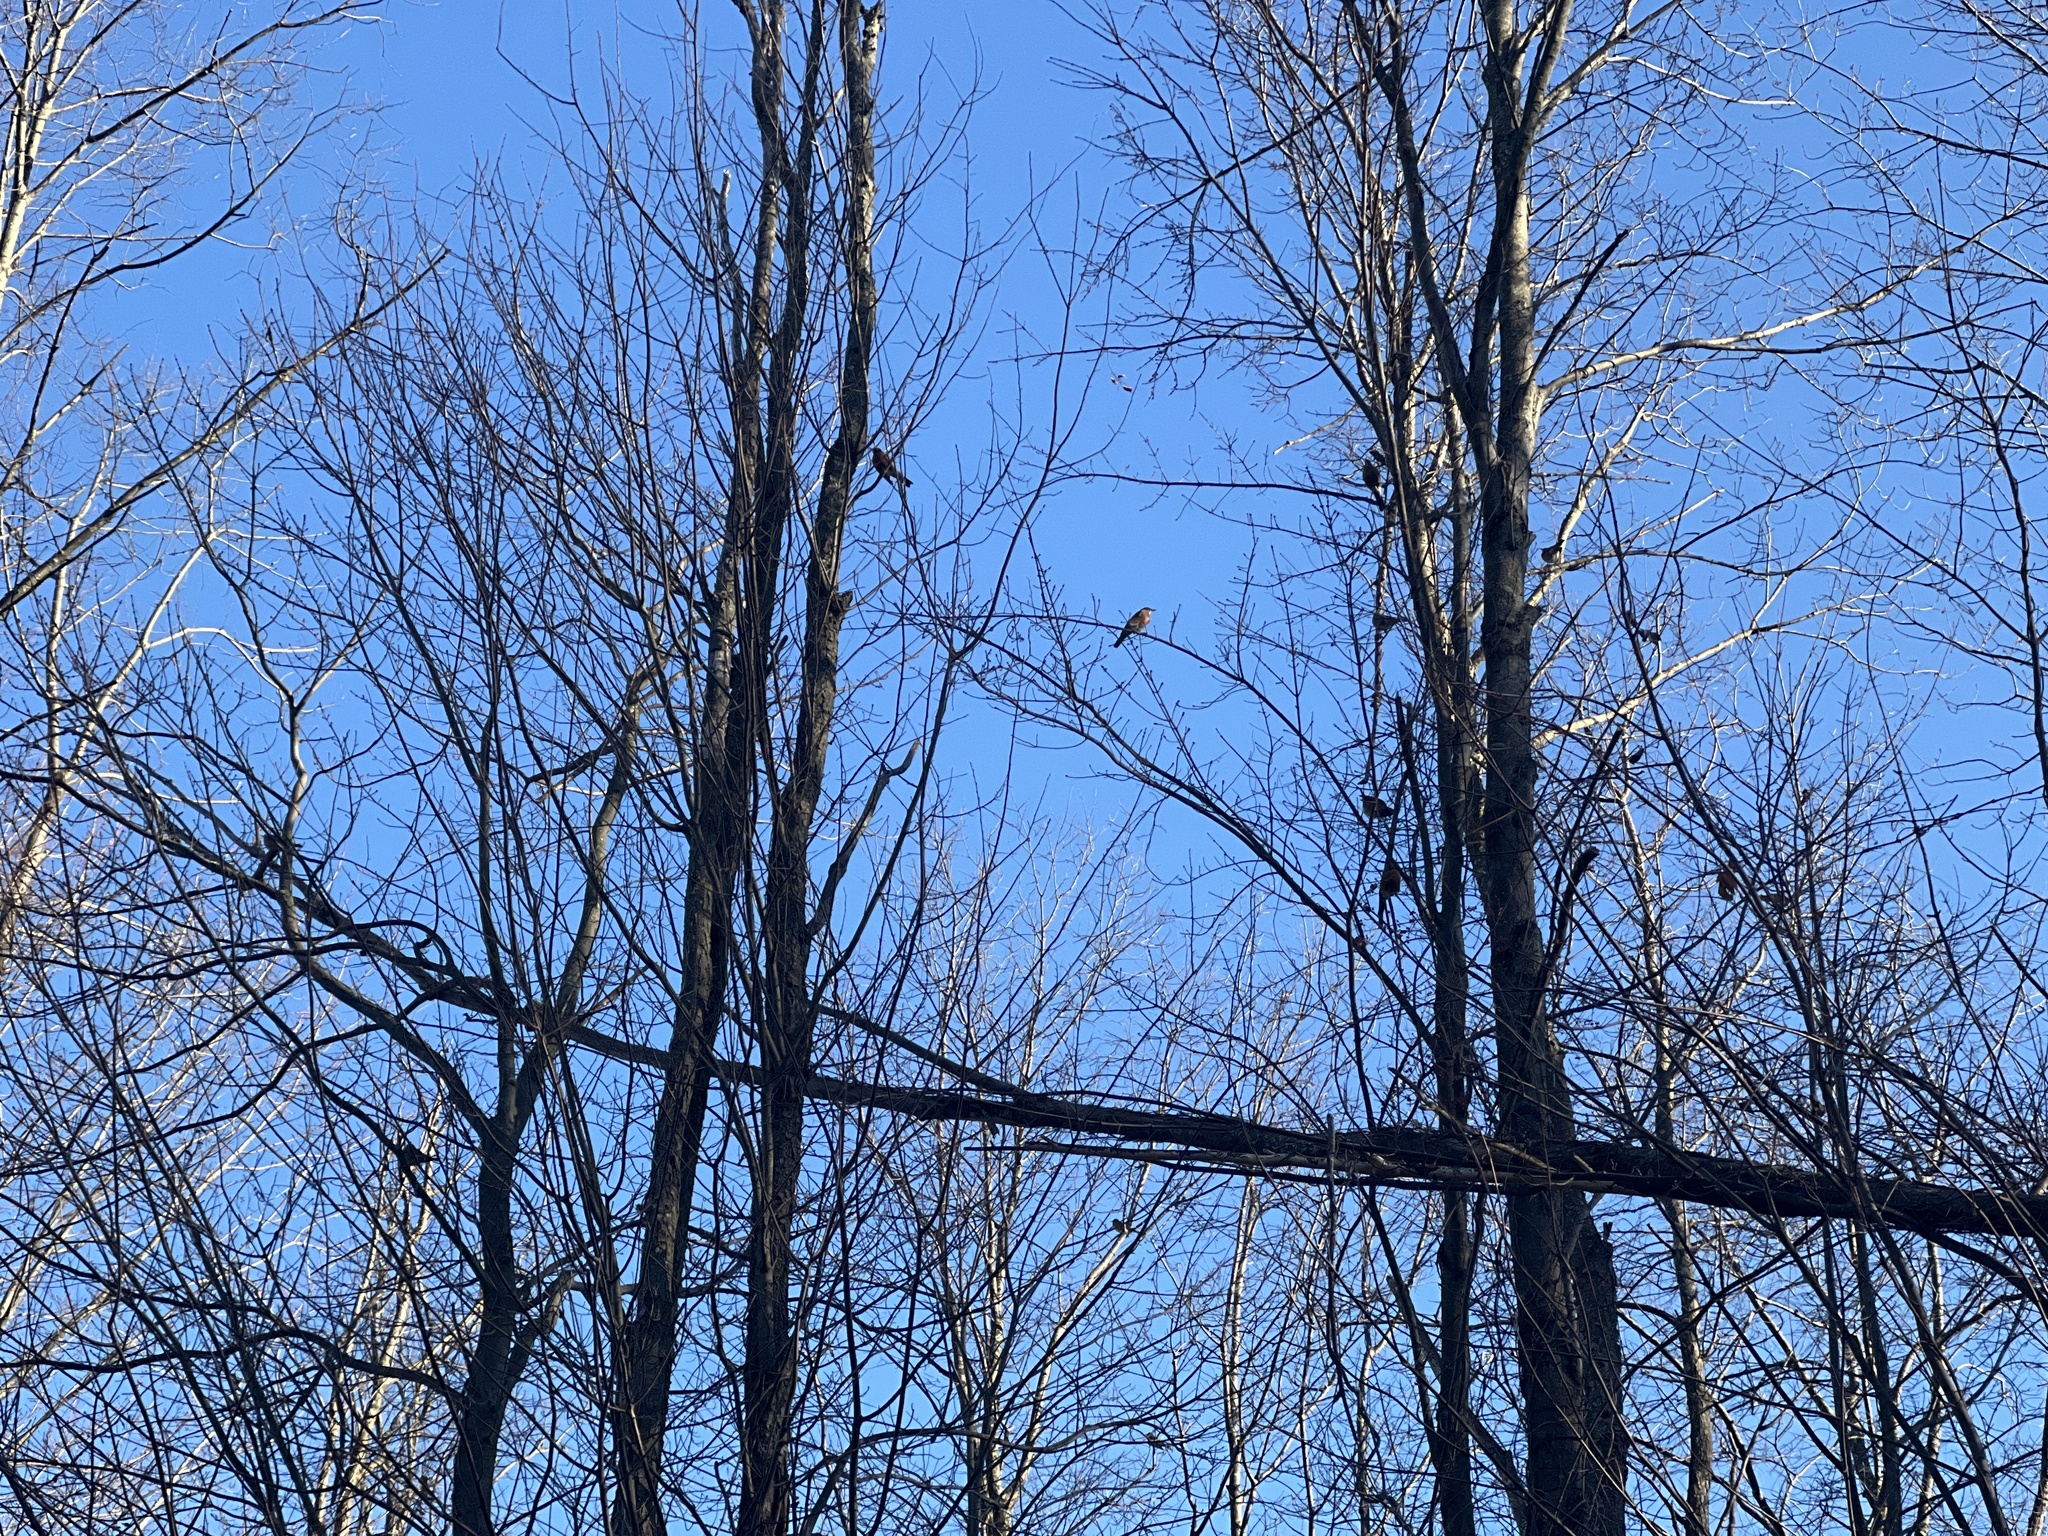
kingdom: Animalia
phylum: Chordata
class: Aves
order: Passeriformes
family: Turdidae
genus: Turdus
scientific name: Turdus migratorius
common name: American robin
